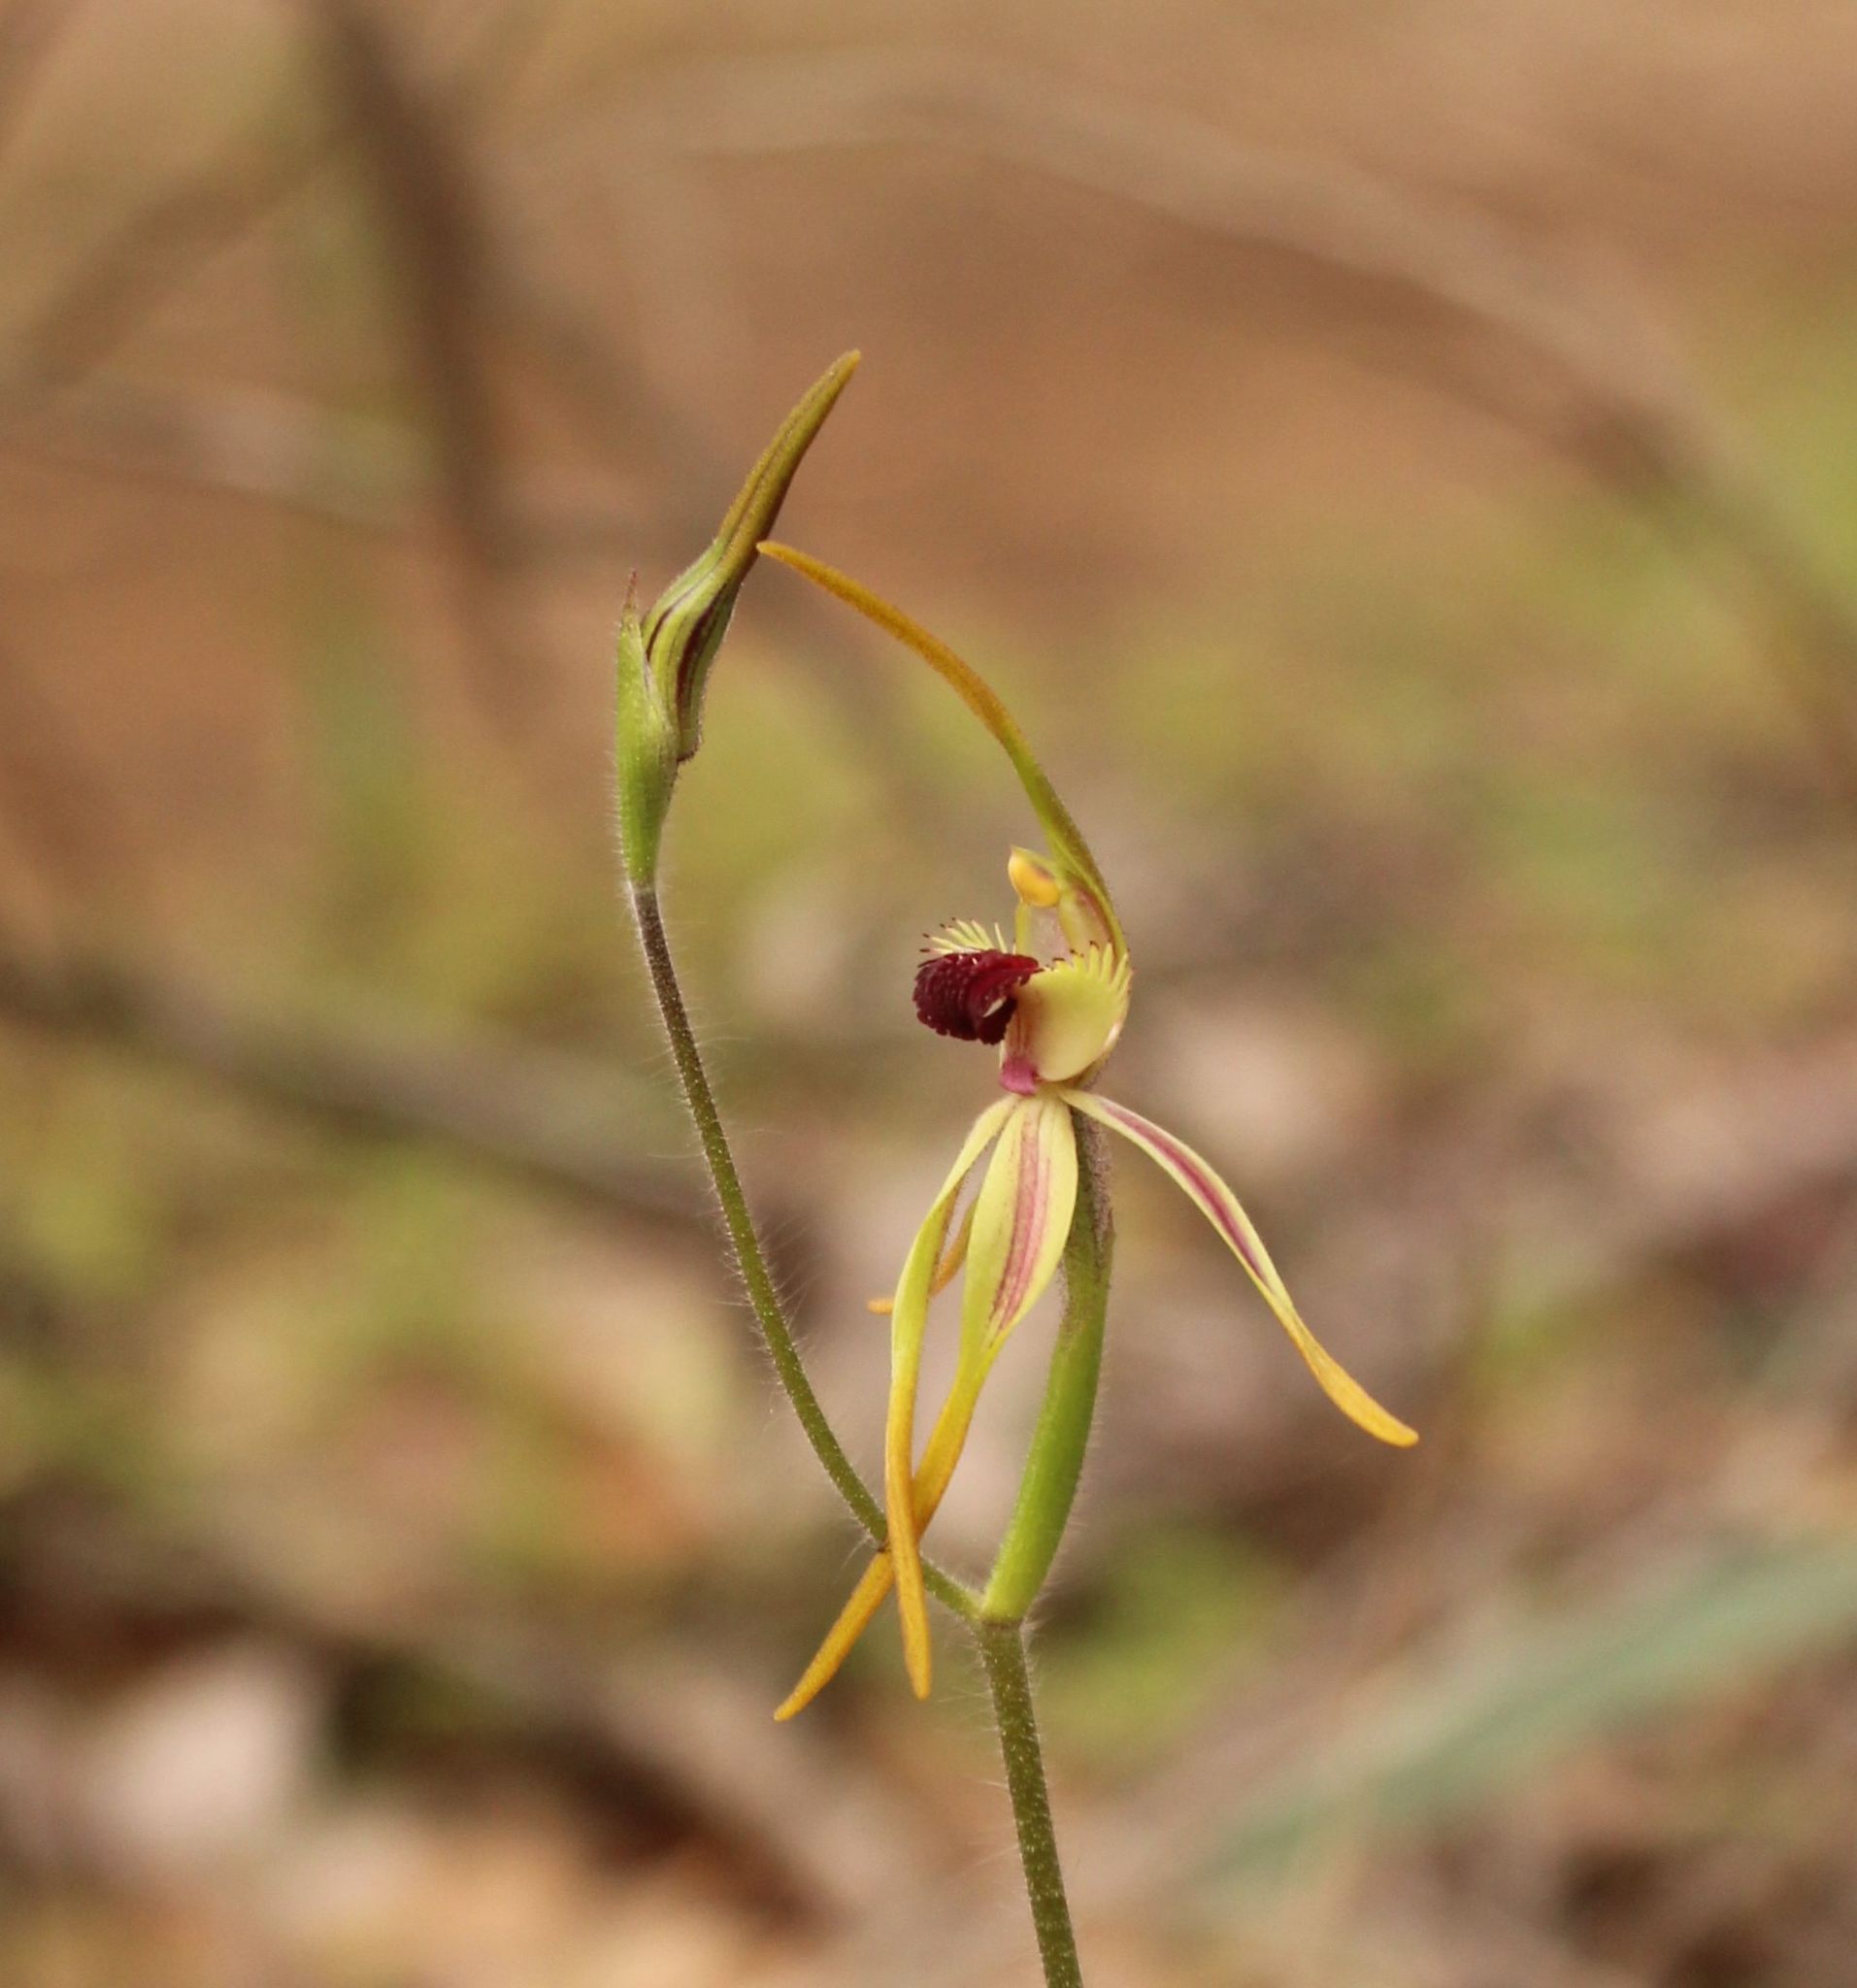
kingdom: Plantae
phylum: Tracheophyta
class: Liliopsida
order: Asparagales
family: Orchidaceae
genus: Caladenia
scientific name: Caladenia longiclavata
